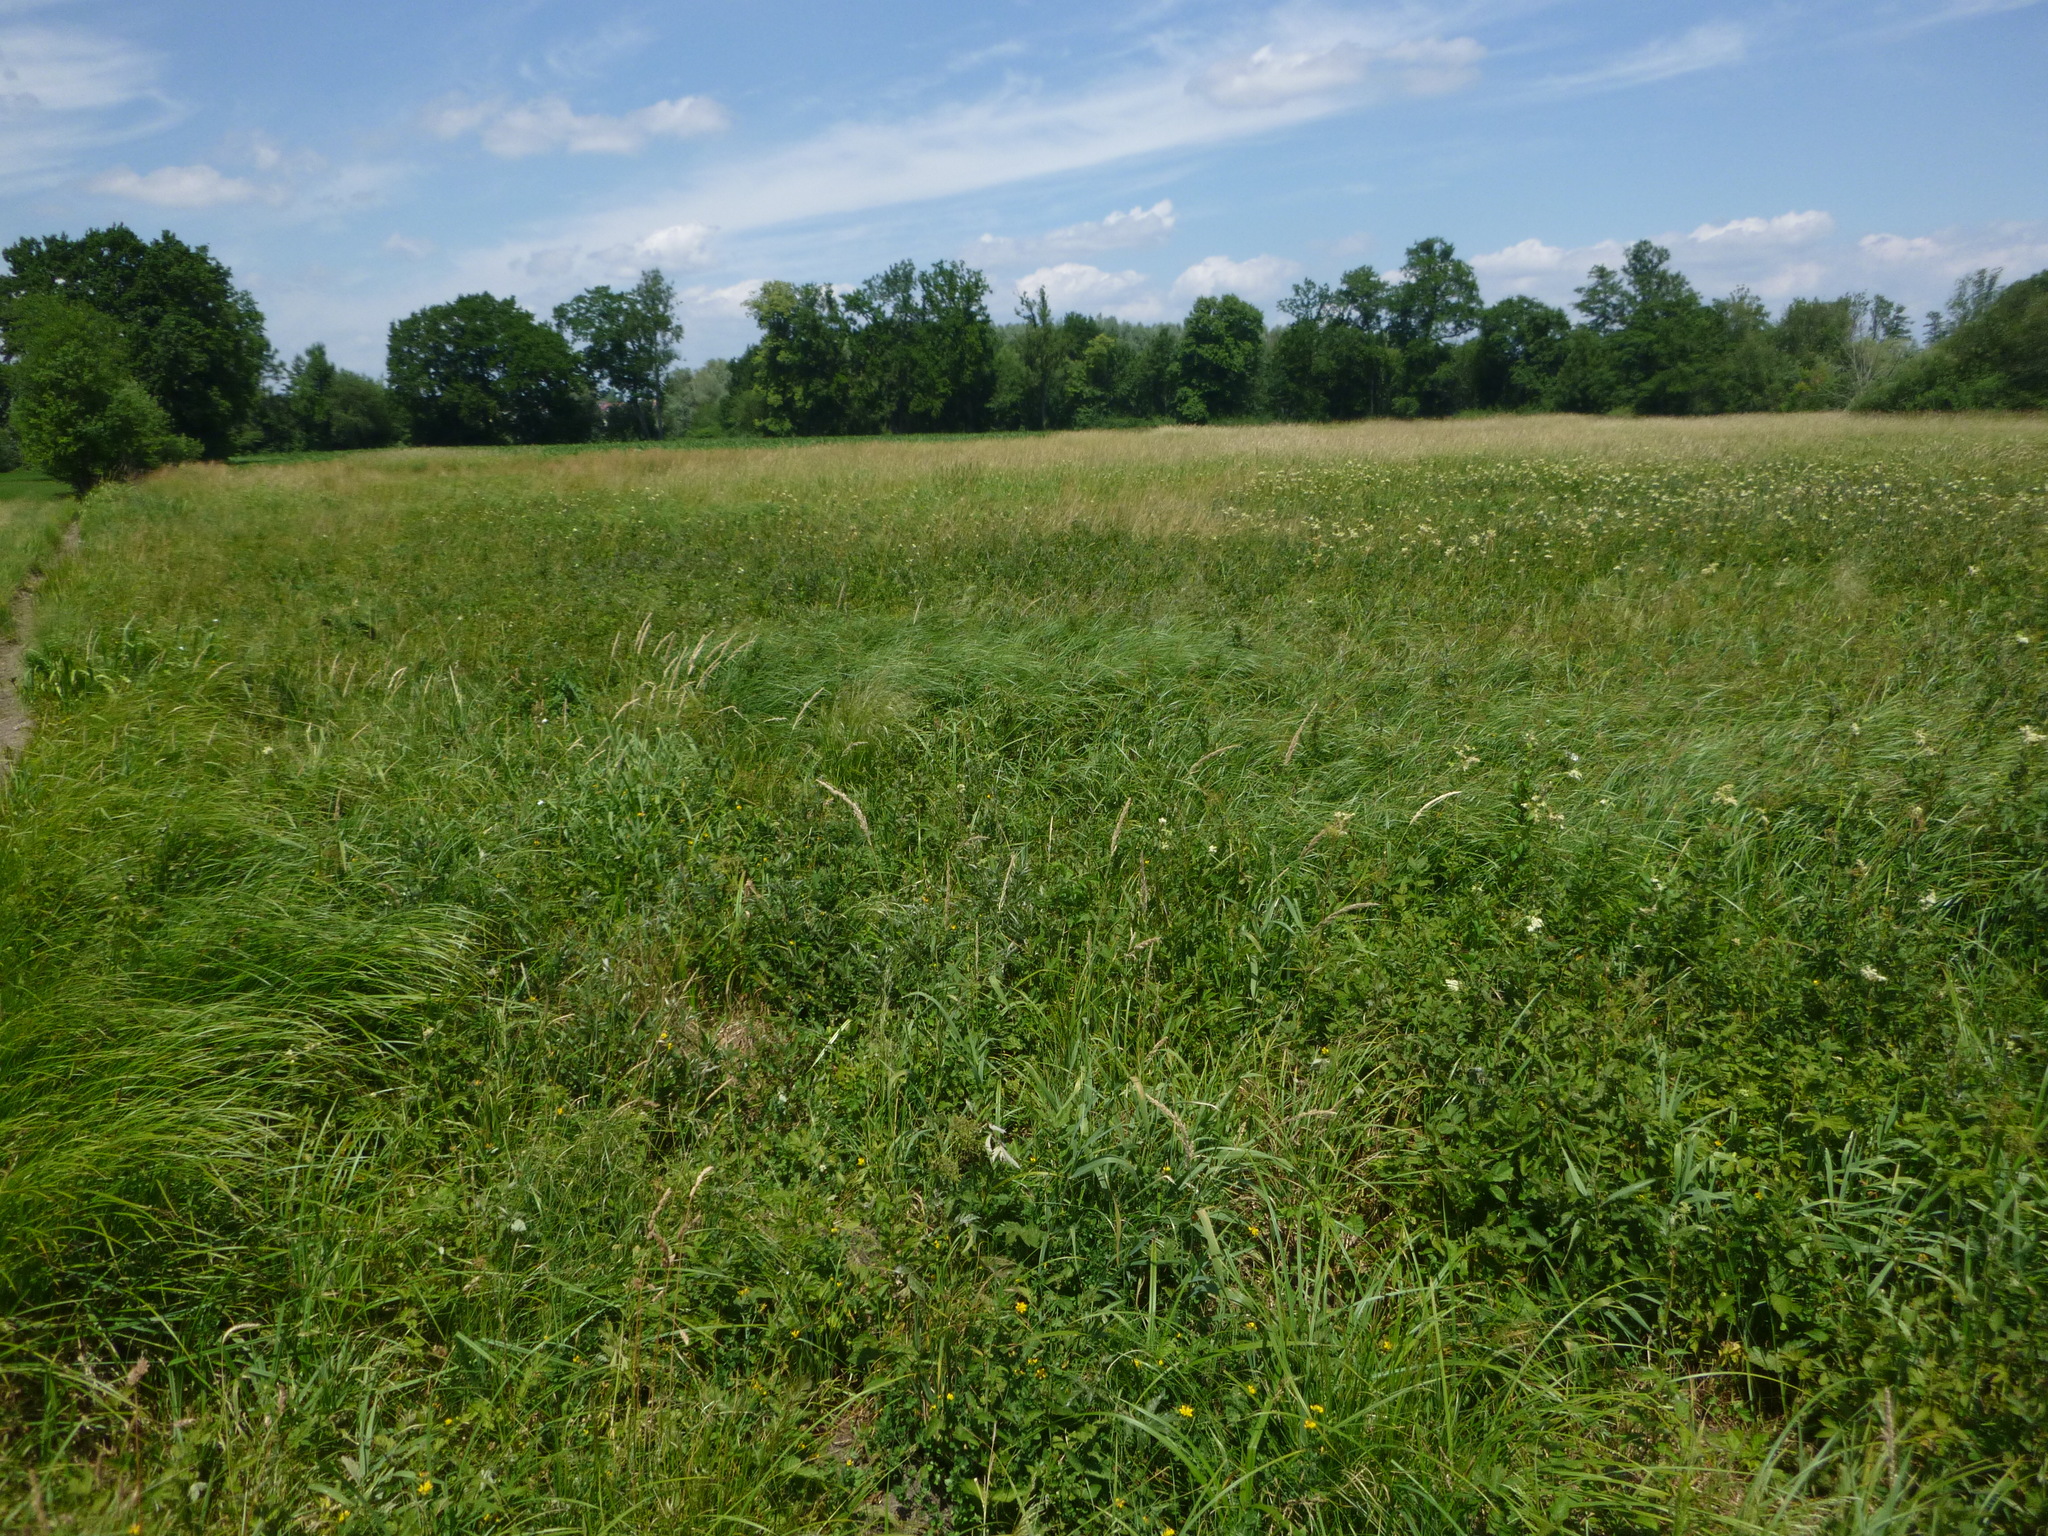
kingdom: Plantae
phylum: Tracheophyta
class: Magnoliopsida
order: Rosales
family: Rosaceae
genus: Filipendula
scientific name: Filipendula ulmaria
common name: Meadowsweet
